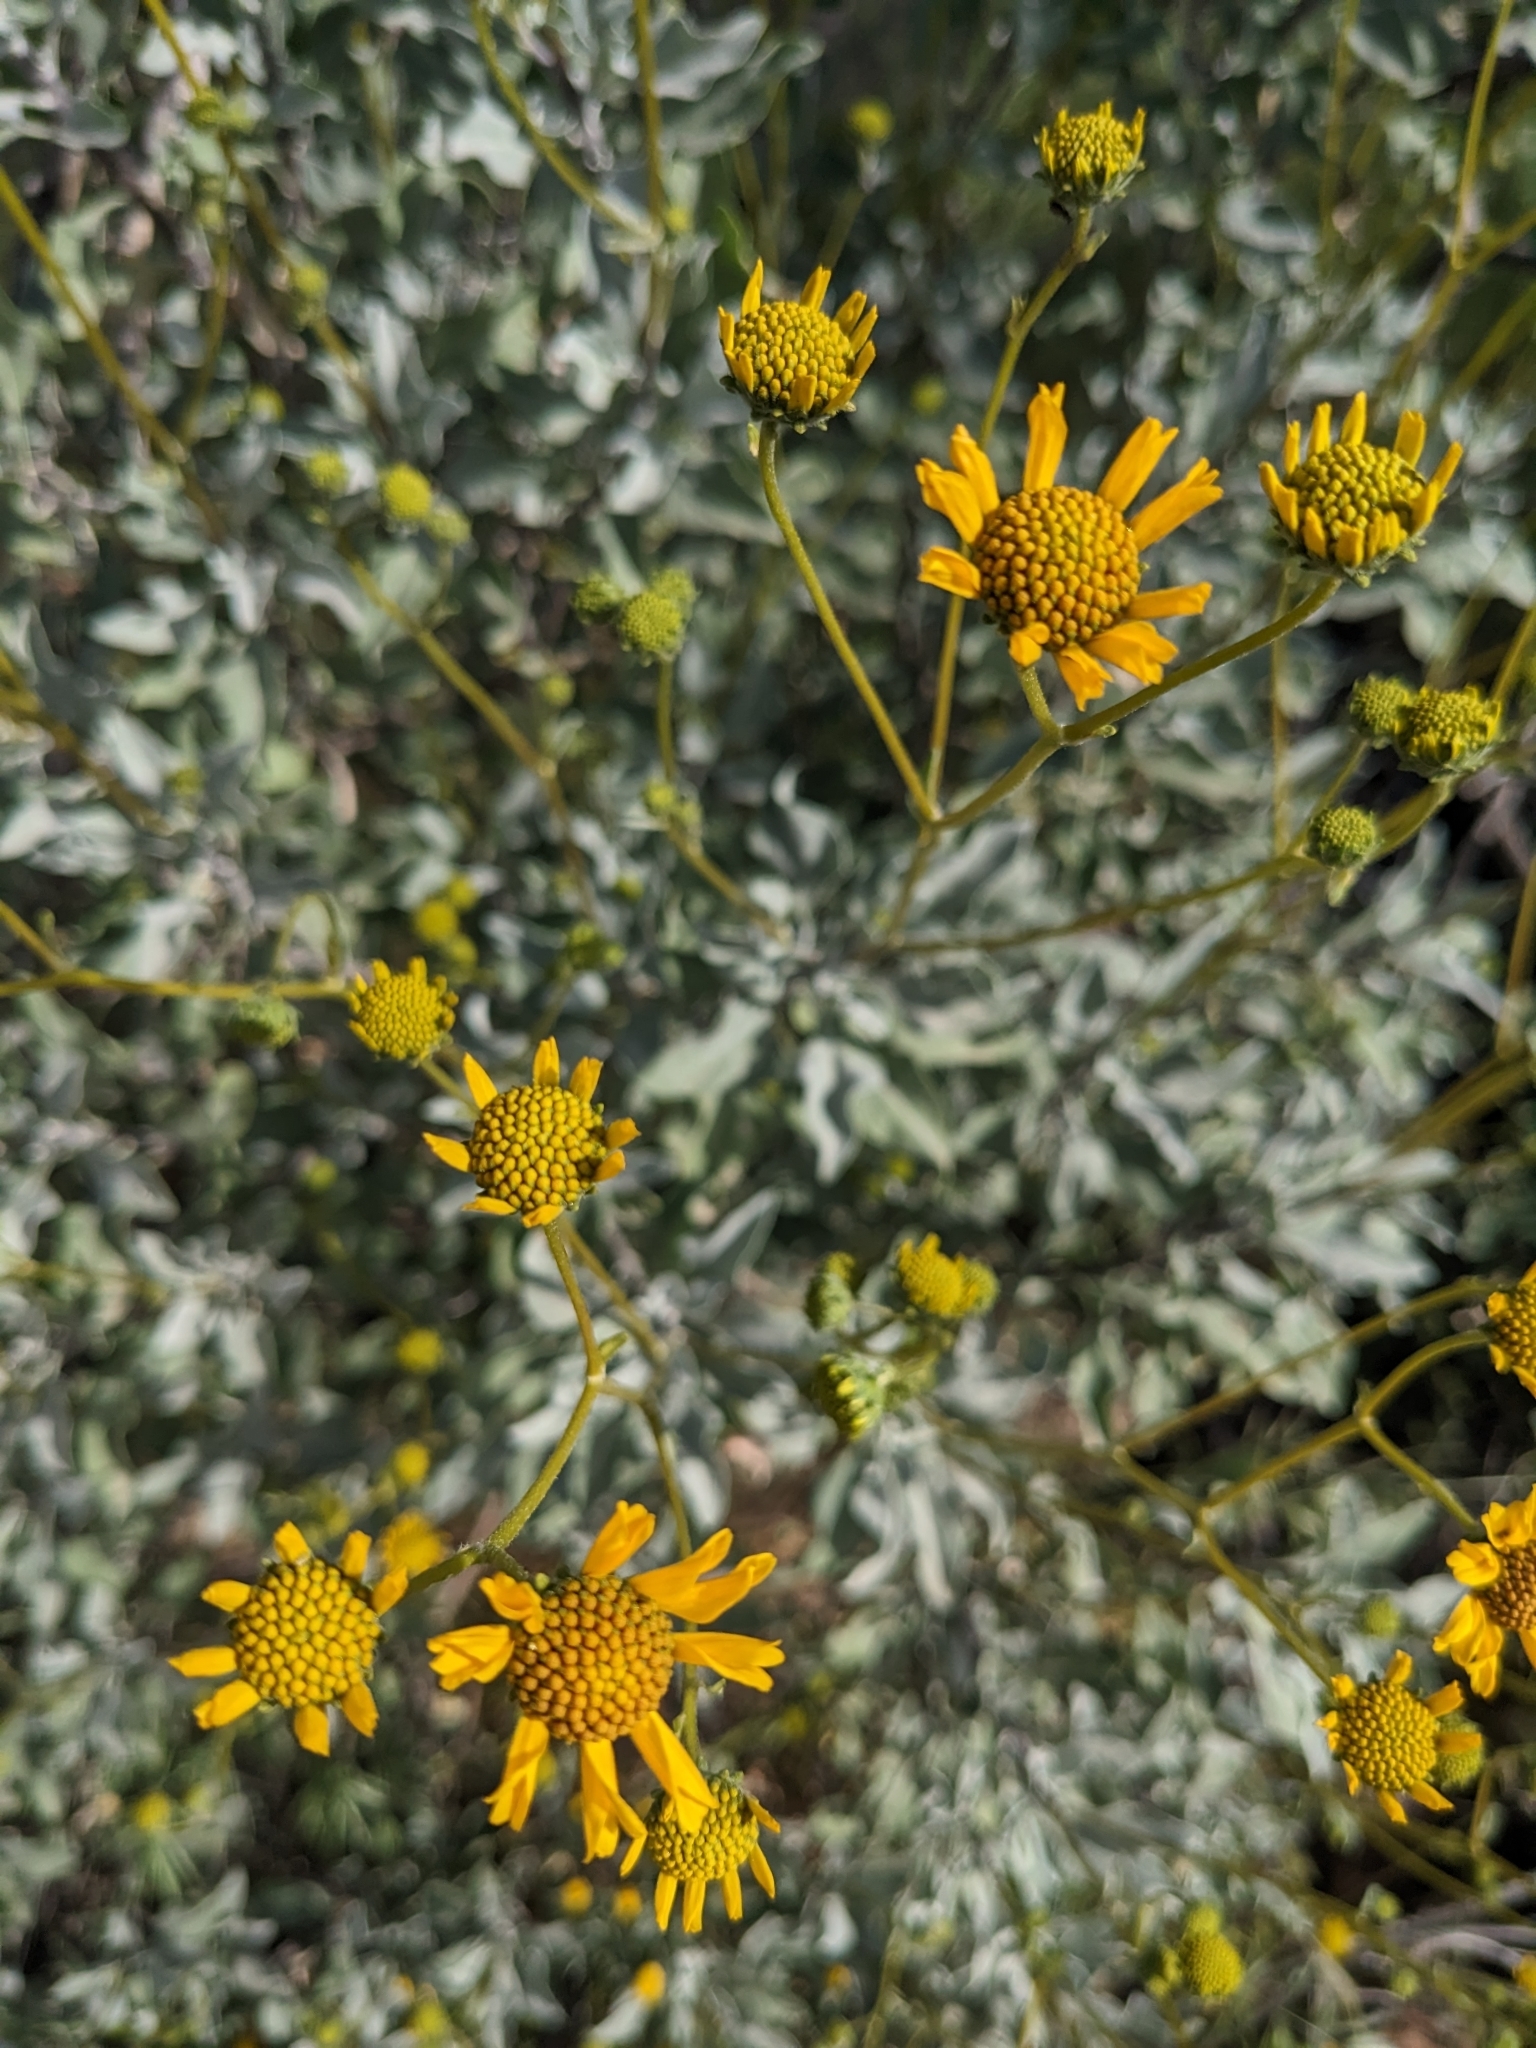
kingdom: Plantae
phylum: Tracheophyta
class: Magnoliopsida
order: Asterales
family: Asteraceae
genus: Encelia
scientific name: Encelia farinosa
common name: Brittlebush
